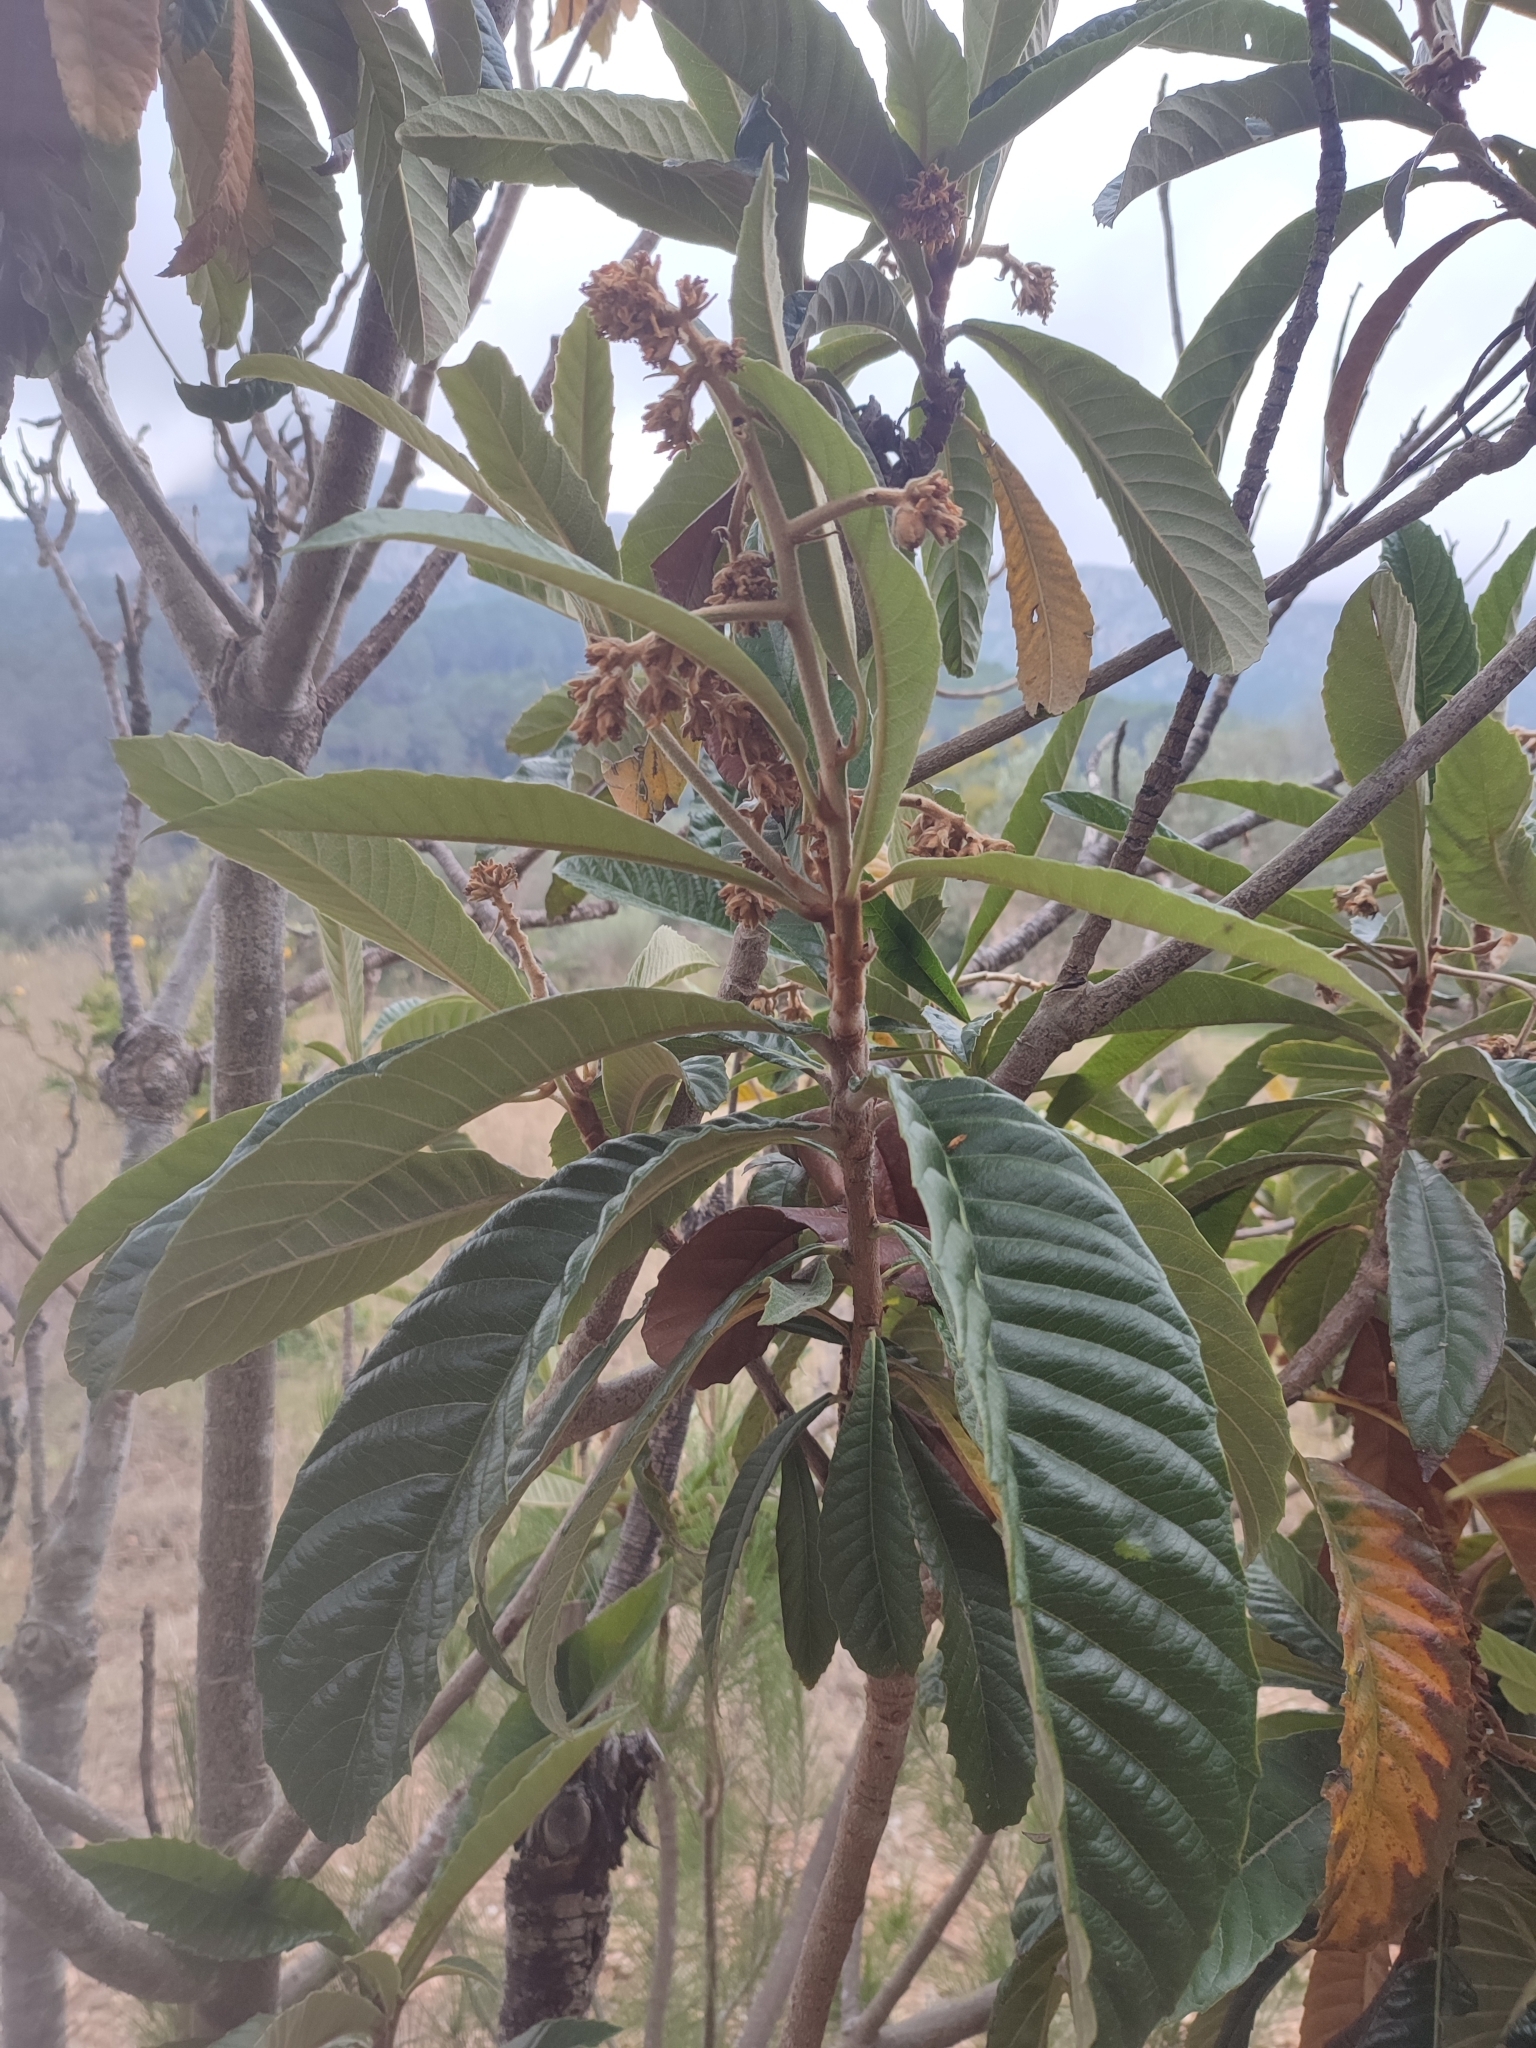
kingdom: Plantae
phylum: Tracheophyta
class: Magnoliopsida
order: Rosales
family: Rosaceae
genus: Rhaphiolepis
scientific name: Rhaphiolepis bibas
